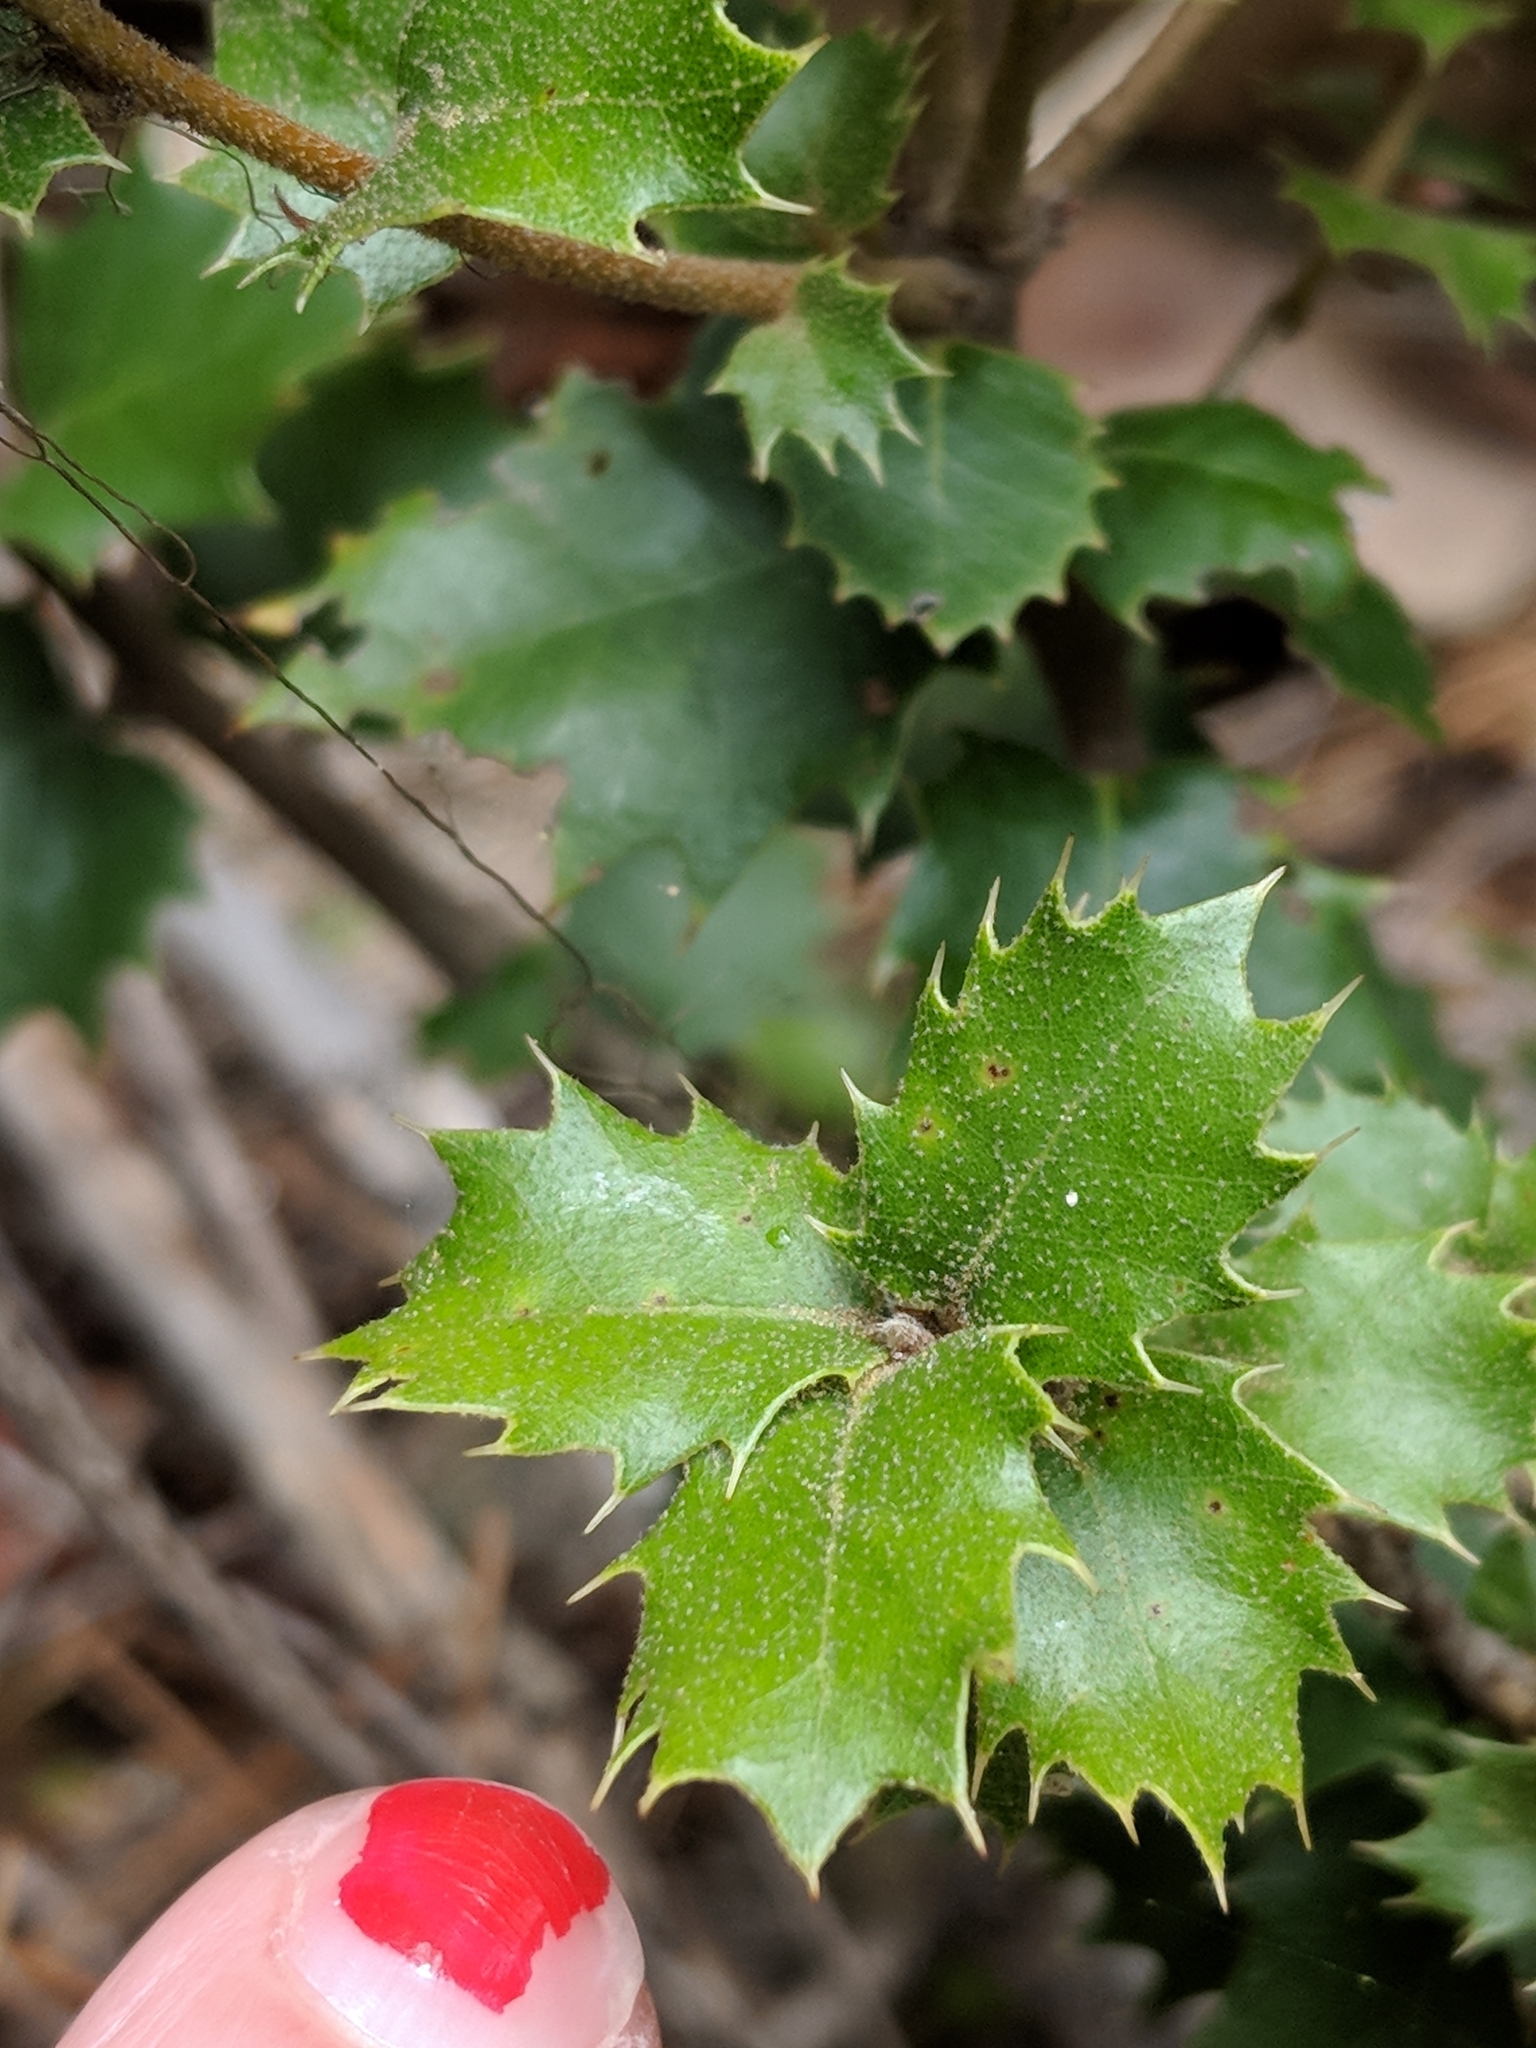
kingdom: Plantae
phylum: Tracheophyta
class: Magnoliopsida
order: Fagales
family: Fagaceae
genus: Quercus
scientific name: Quercus chrysolepis
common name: Canyon live oak
